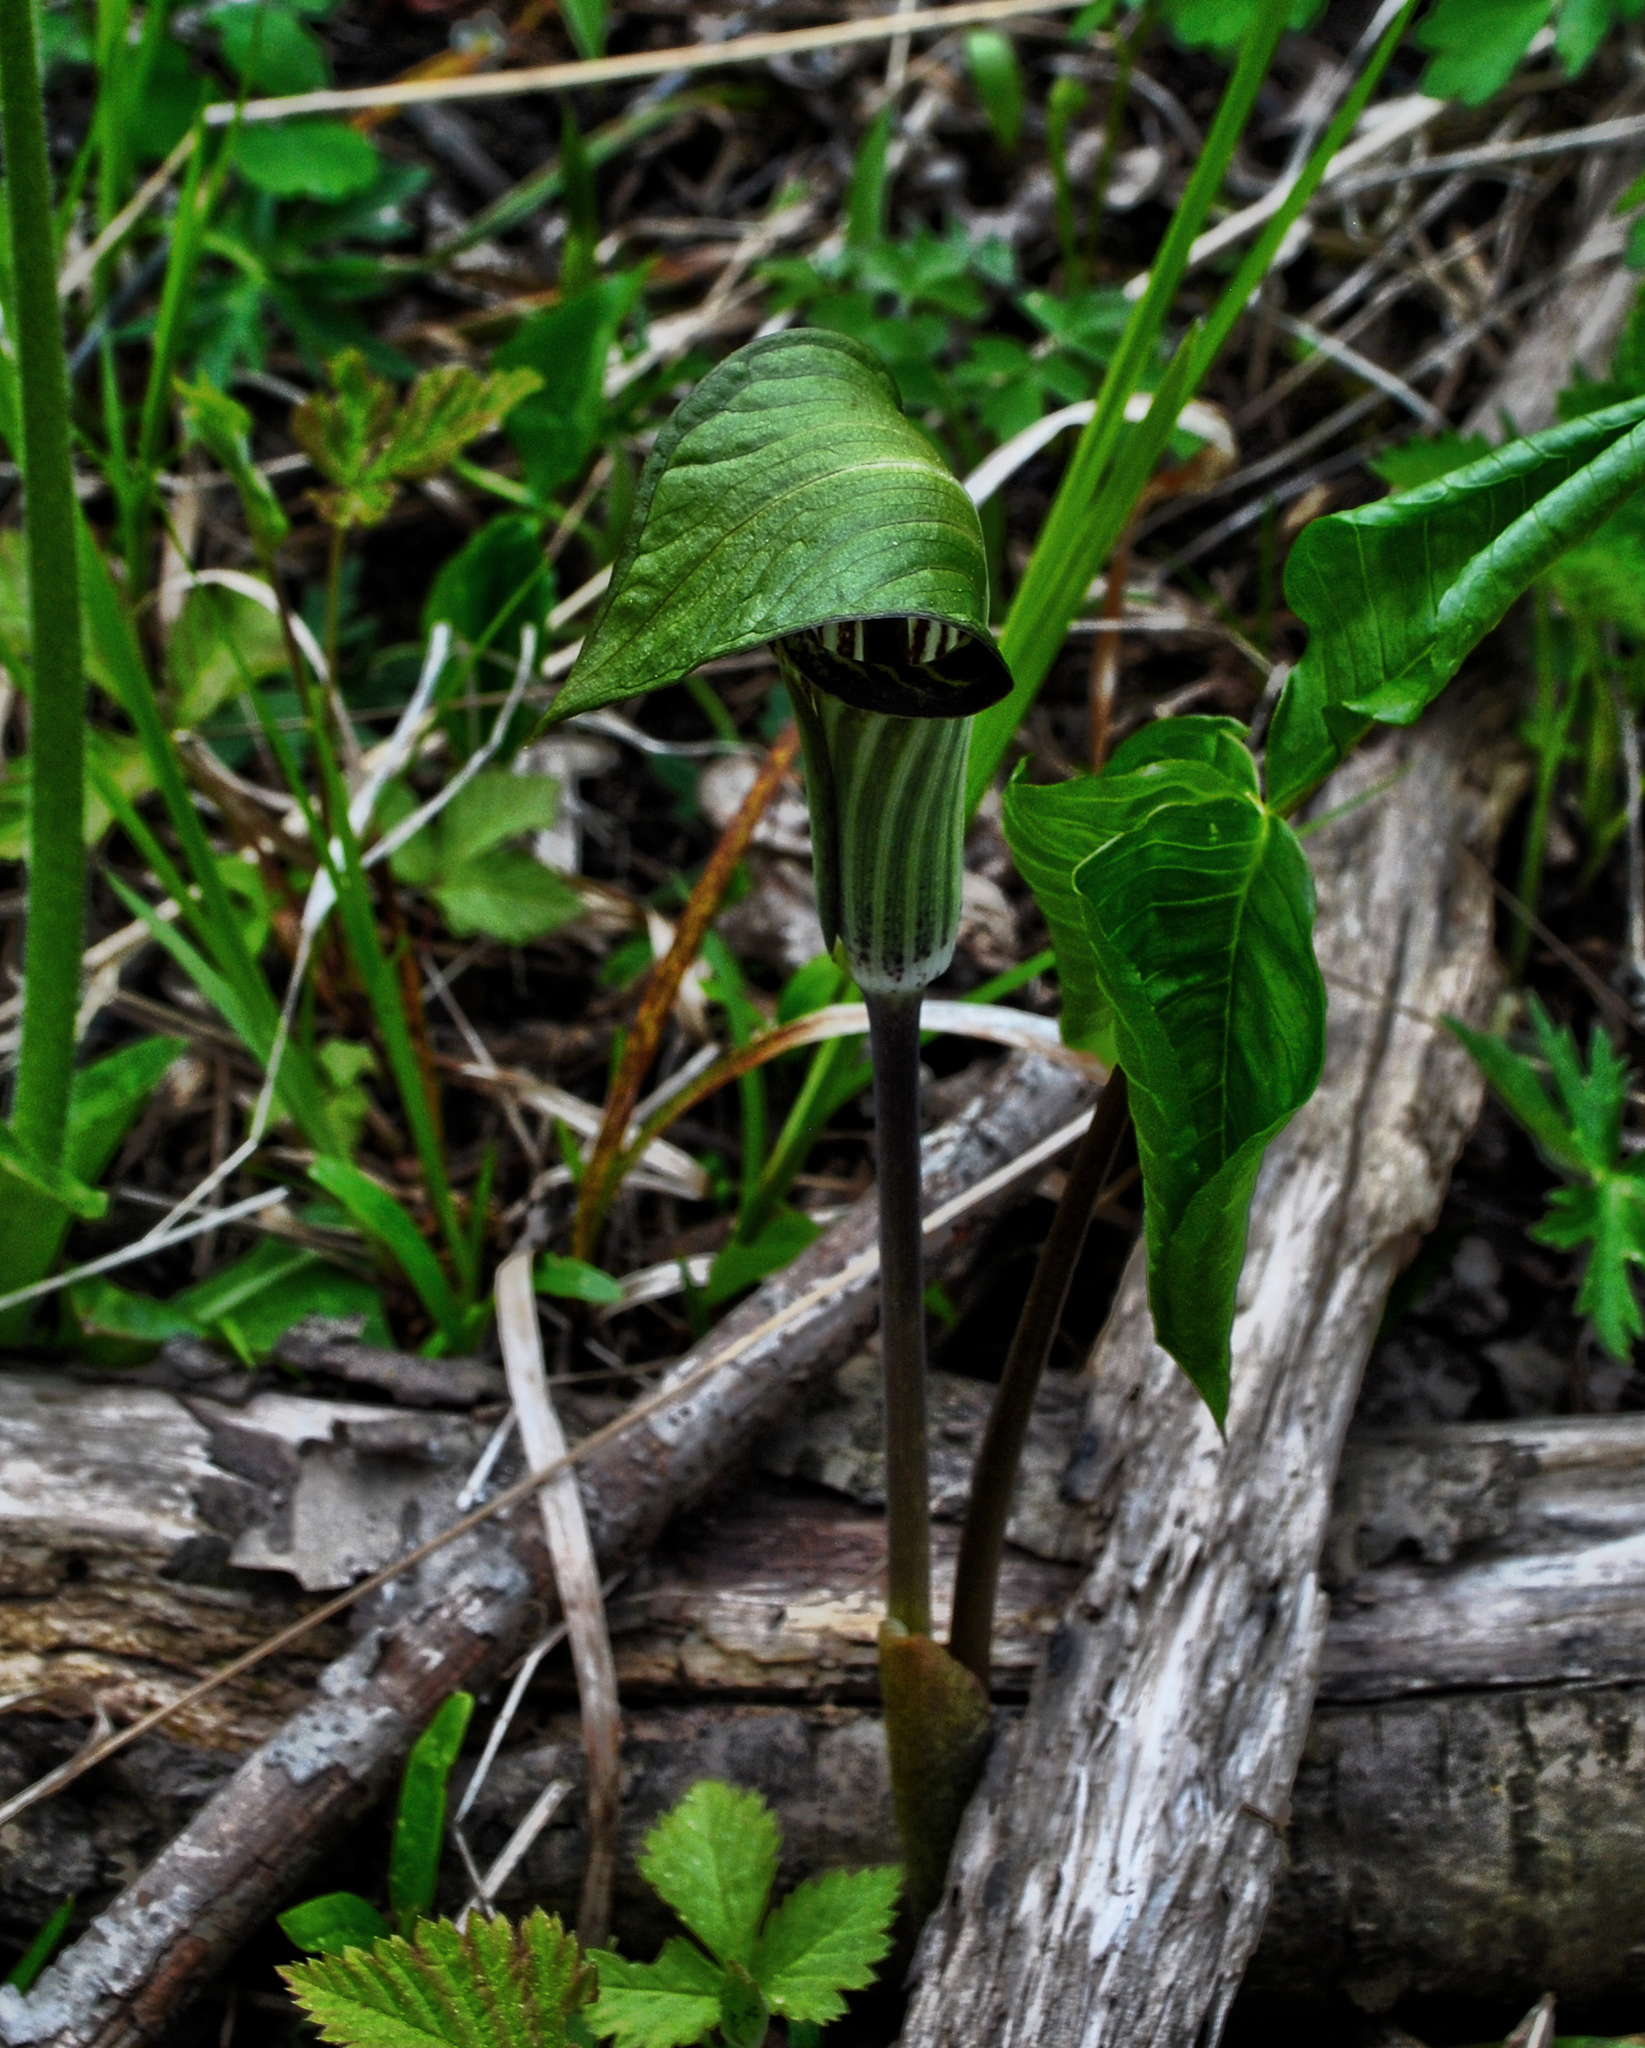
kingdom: Plantae
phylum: Tracheophyta
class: Liliopsida
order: Alismatales
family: Araceae
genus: Arisaema
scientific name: Arisaema triphyllum
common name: Jack-in-the-pulpit
